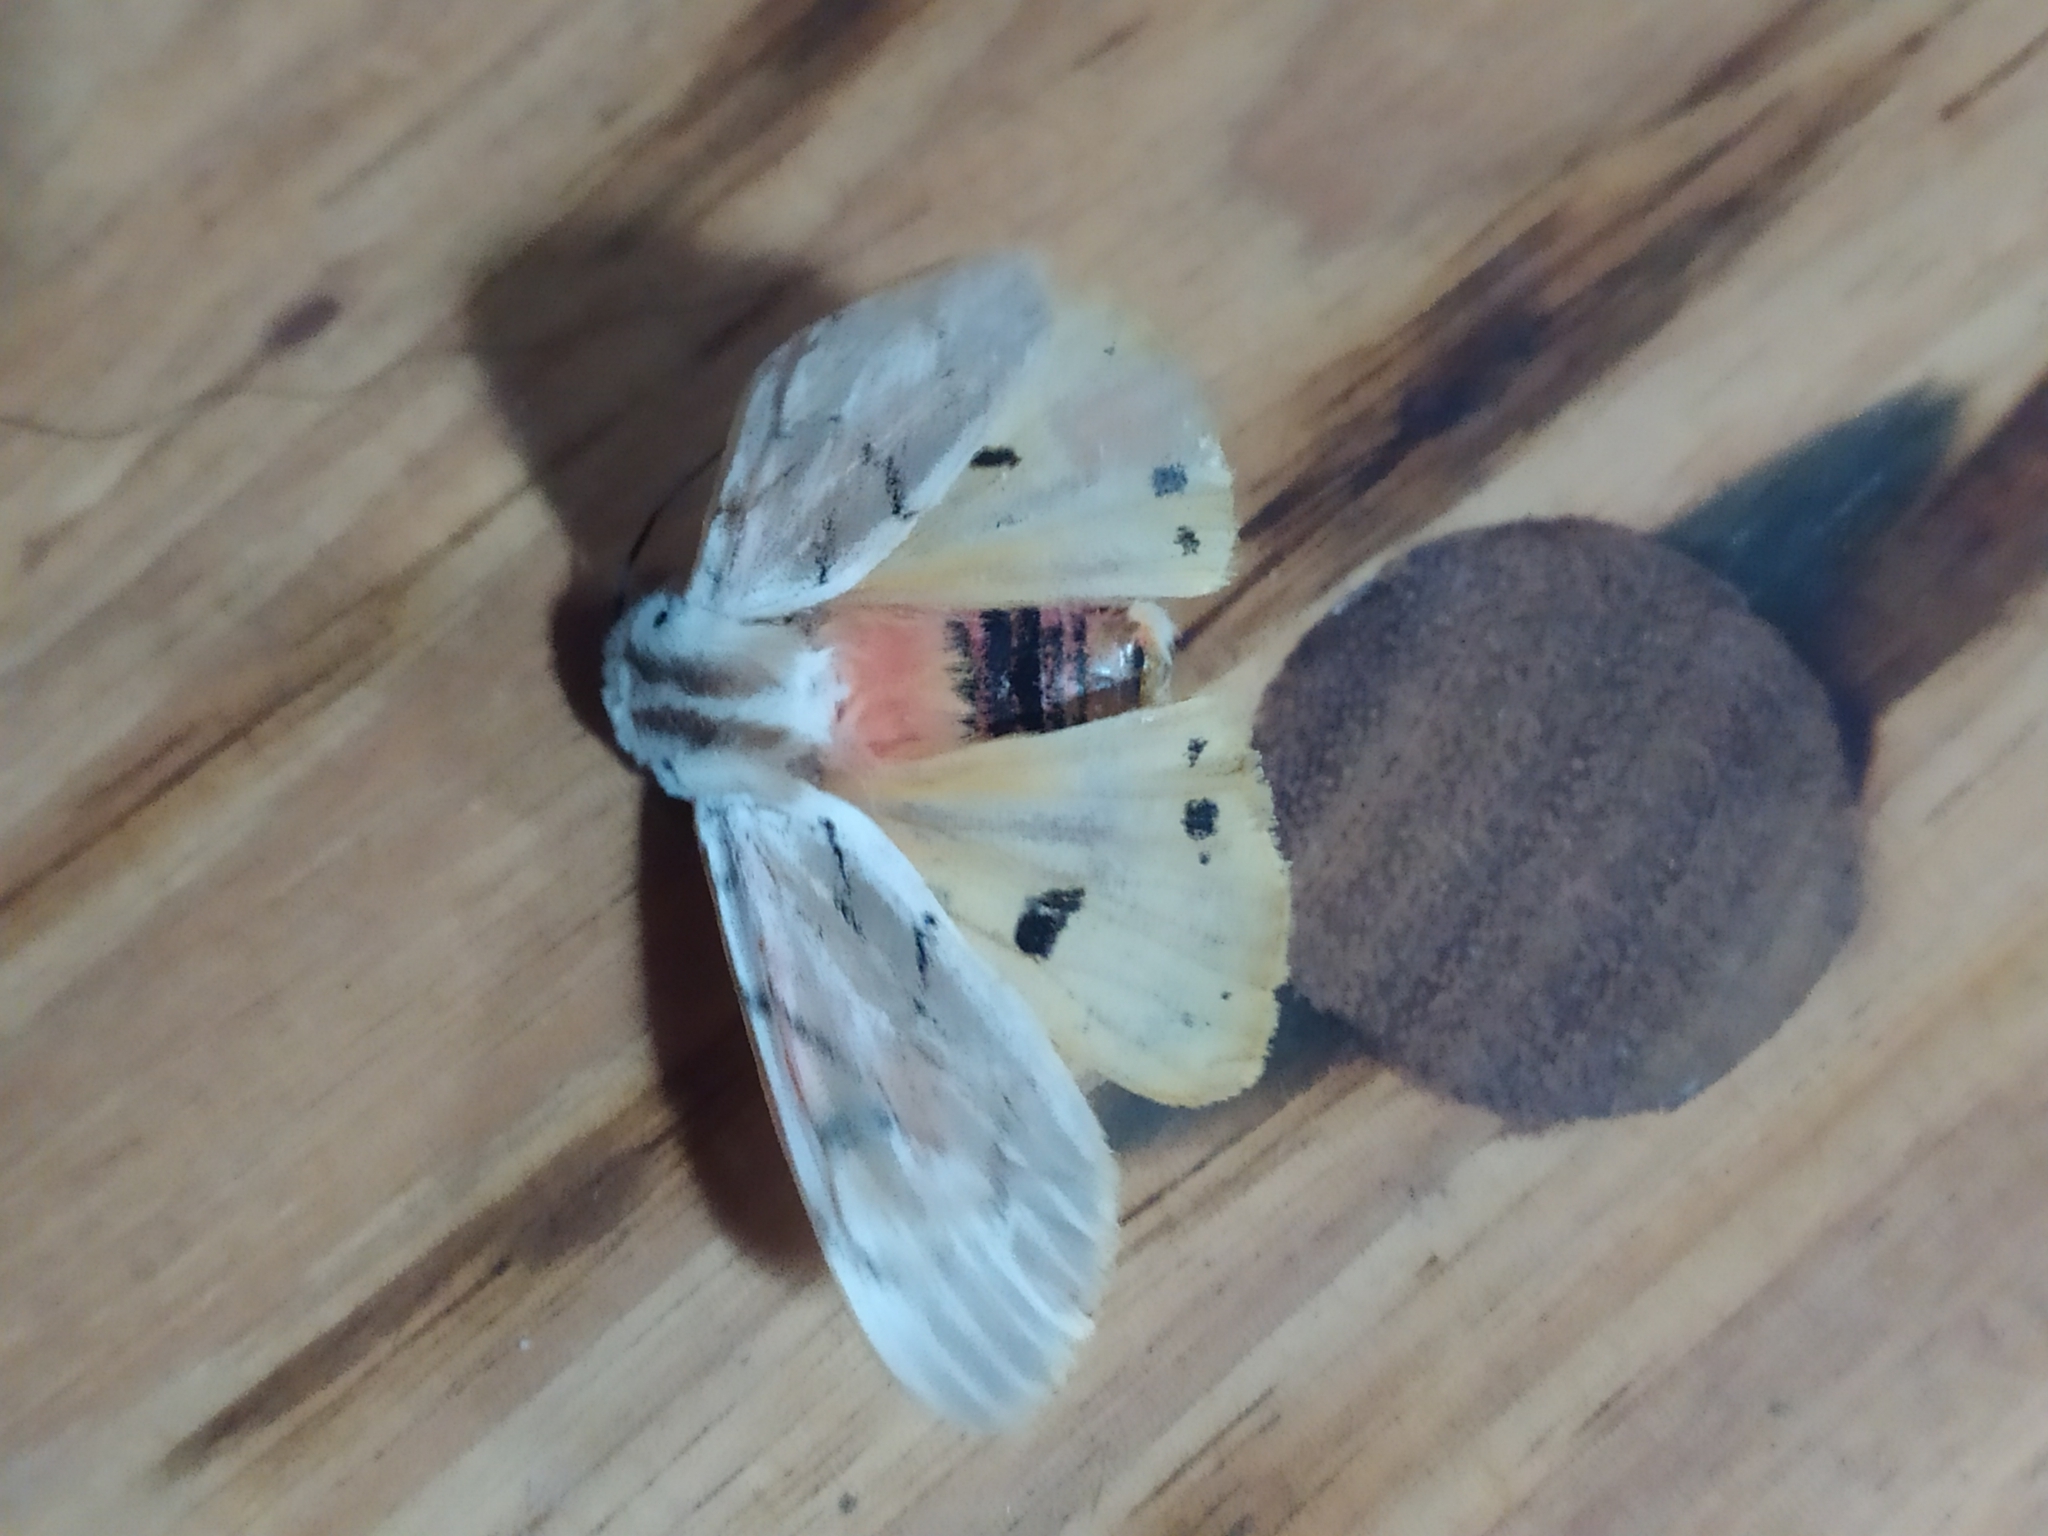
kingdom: Animalia
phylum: Arthropoda
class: Insecta
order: Lepidoptera
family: Erebidae
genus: Rhodogastria
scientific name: Rhodogastria amasis
